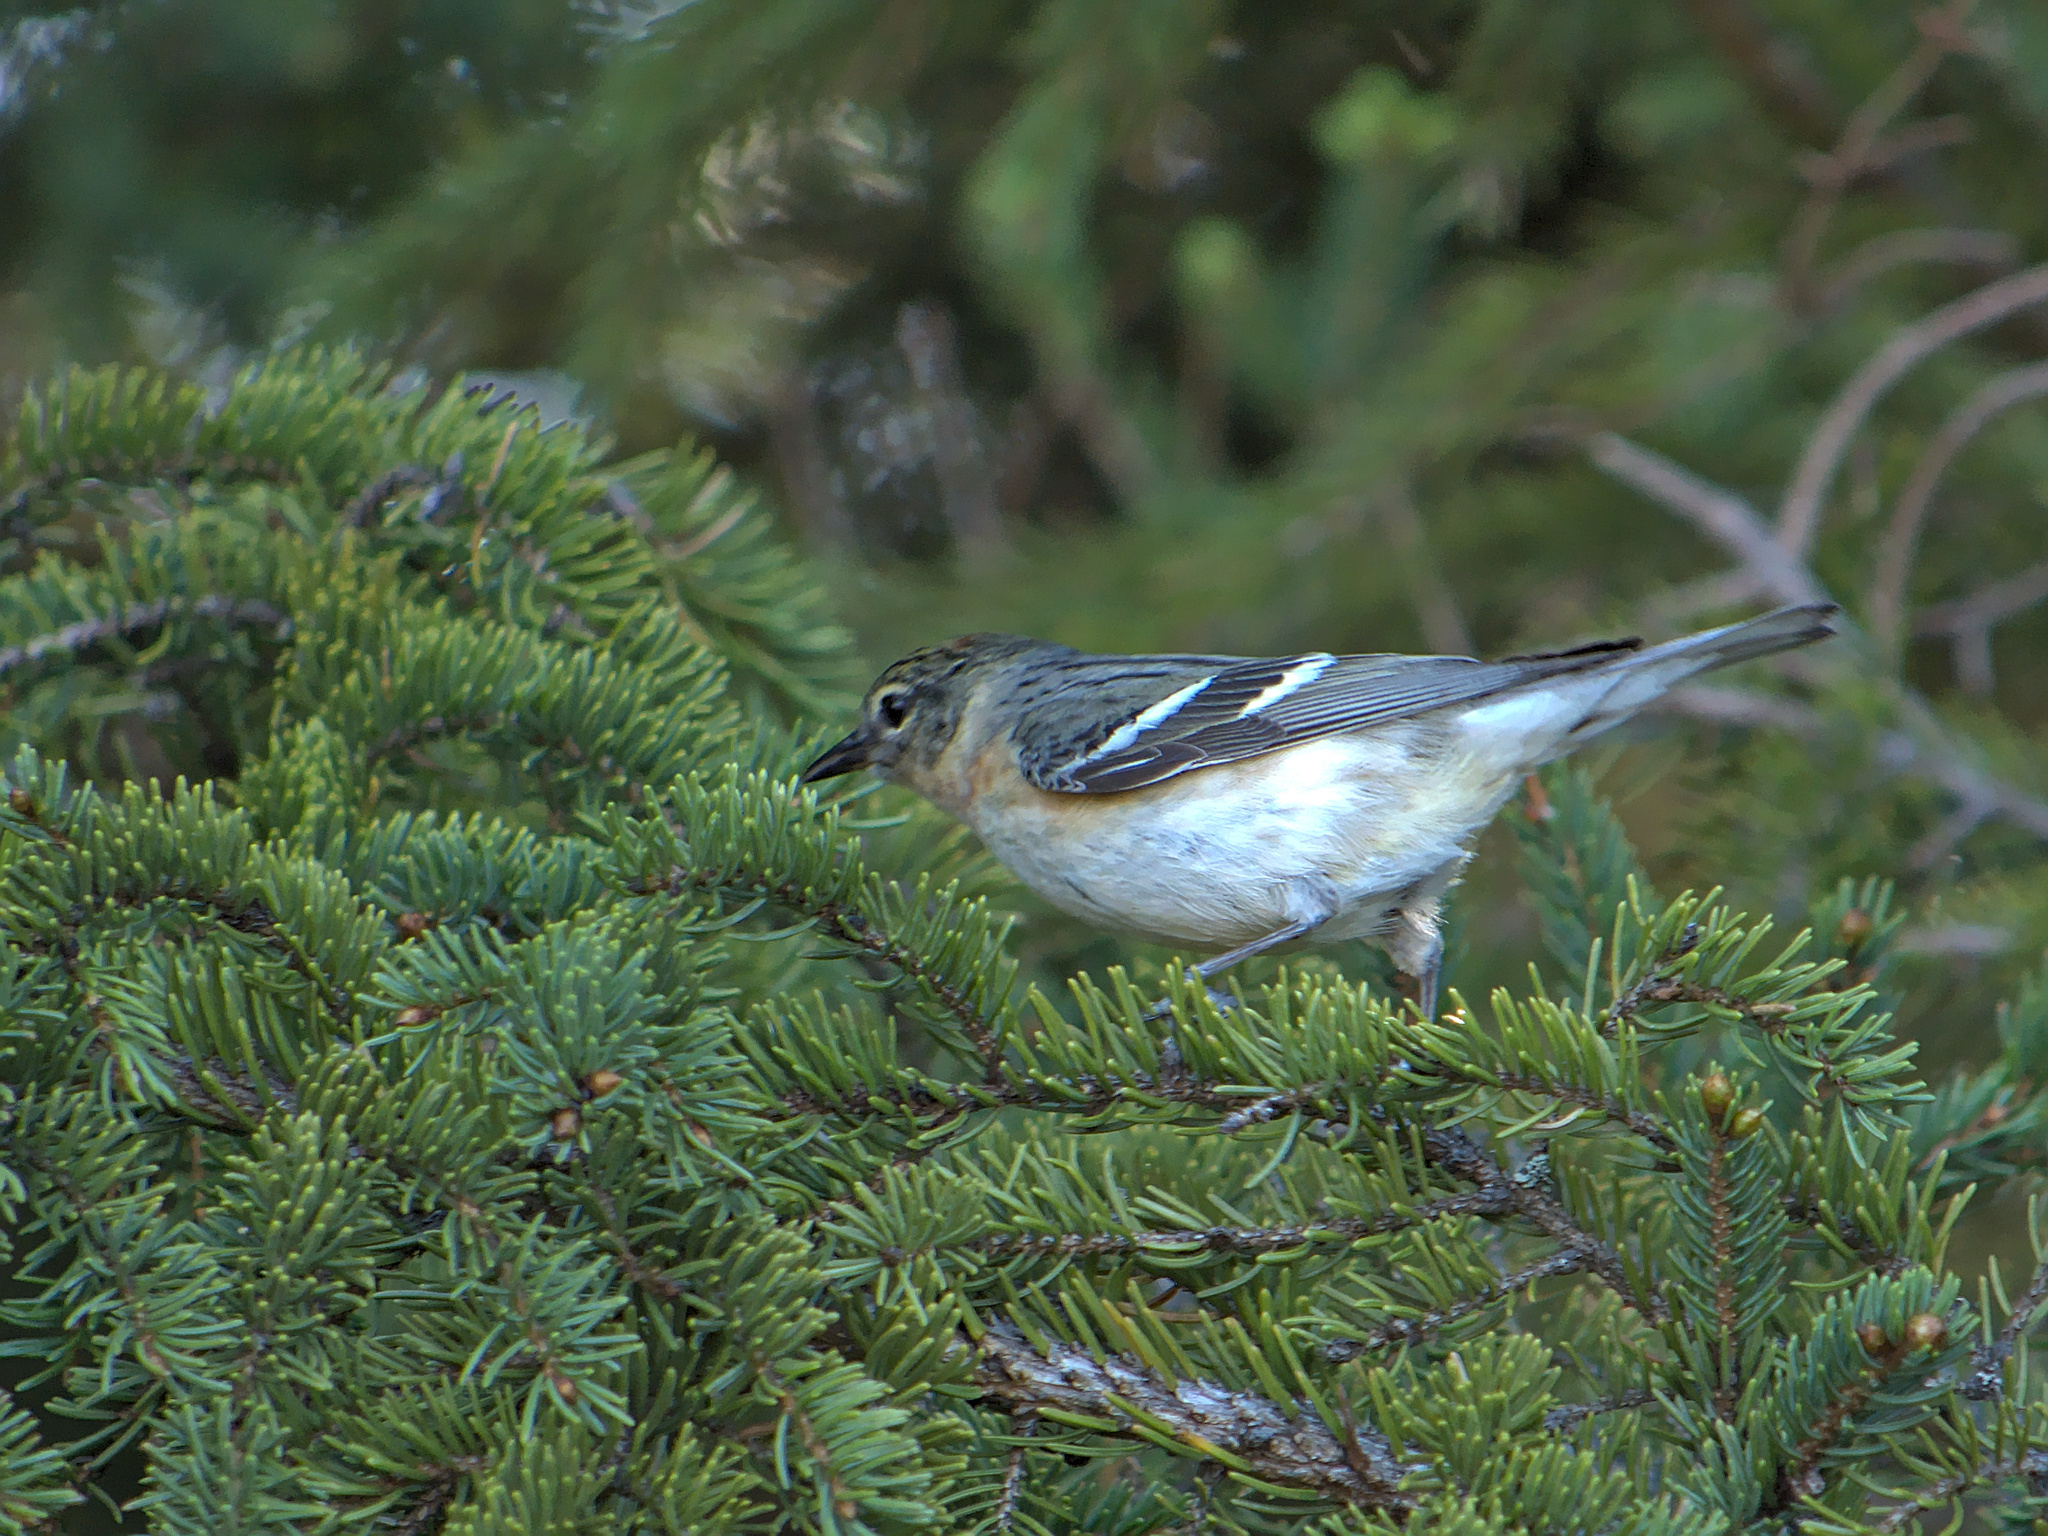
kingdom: Animalia
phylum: Chordata
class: Aves
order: Passeriformes
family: Parulidae
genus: Setophaga
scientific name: Setophaga castanea
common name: Bay-breasted warbler
